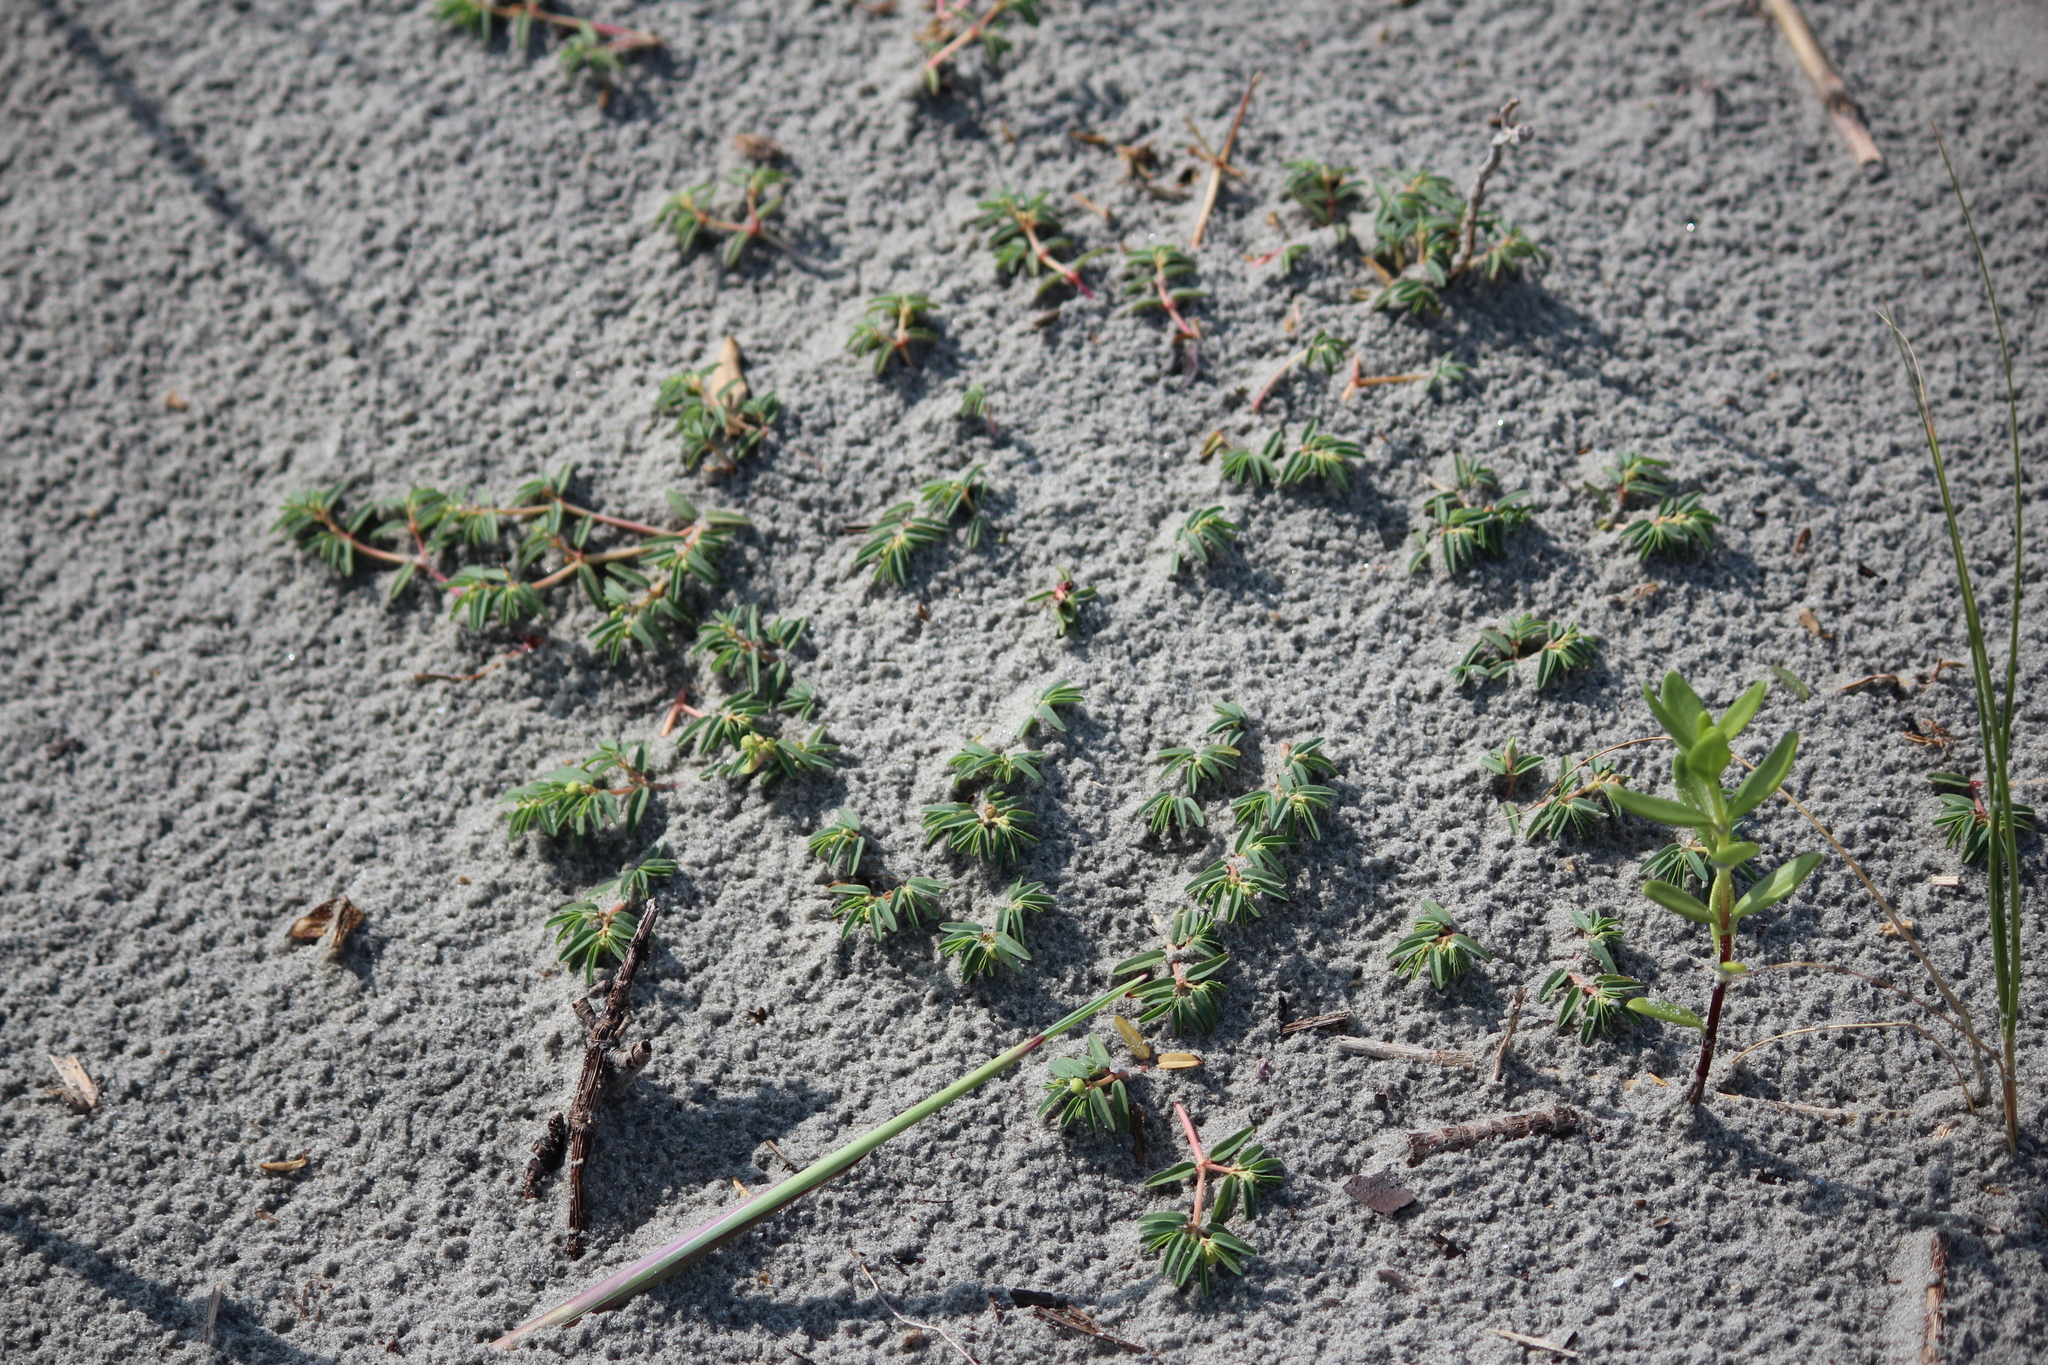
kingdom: Plantae
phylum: Tracheophyta
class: Magnoliopsida
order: Malpighiales
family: Euphorbiaceae
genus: Euphorbia
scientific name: Euphorbia polygonifolia
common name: Knotweed spurge
